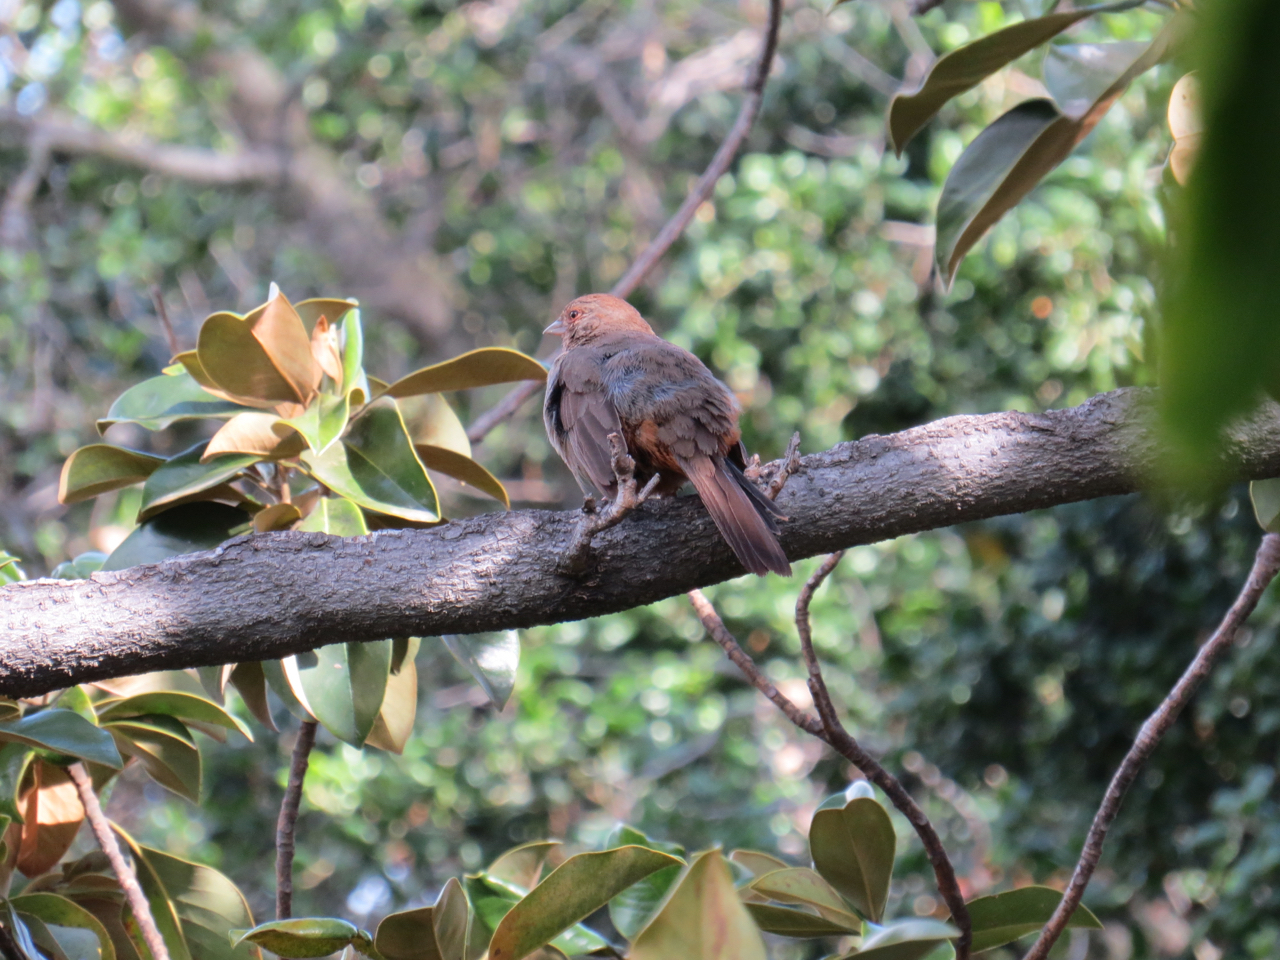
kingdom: Animalia
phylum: Chordata
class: Aves
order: Passeriformes
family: Passerellidae
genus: Melozone
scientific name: Melozone crissalis
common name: California towhee
